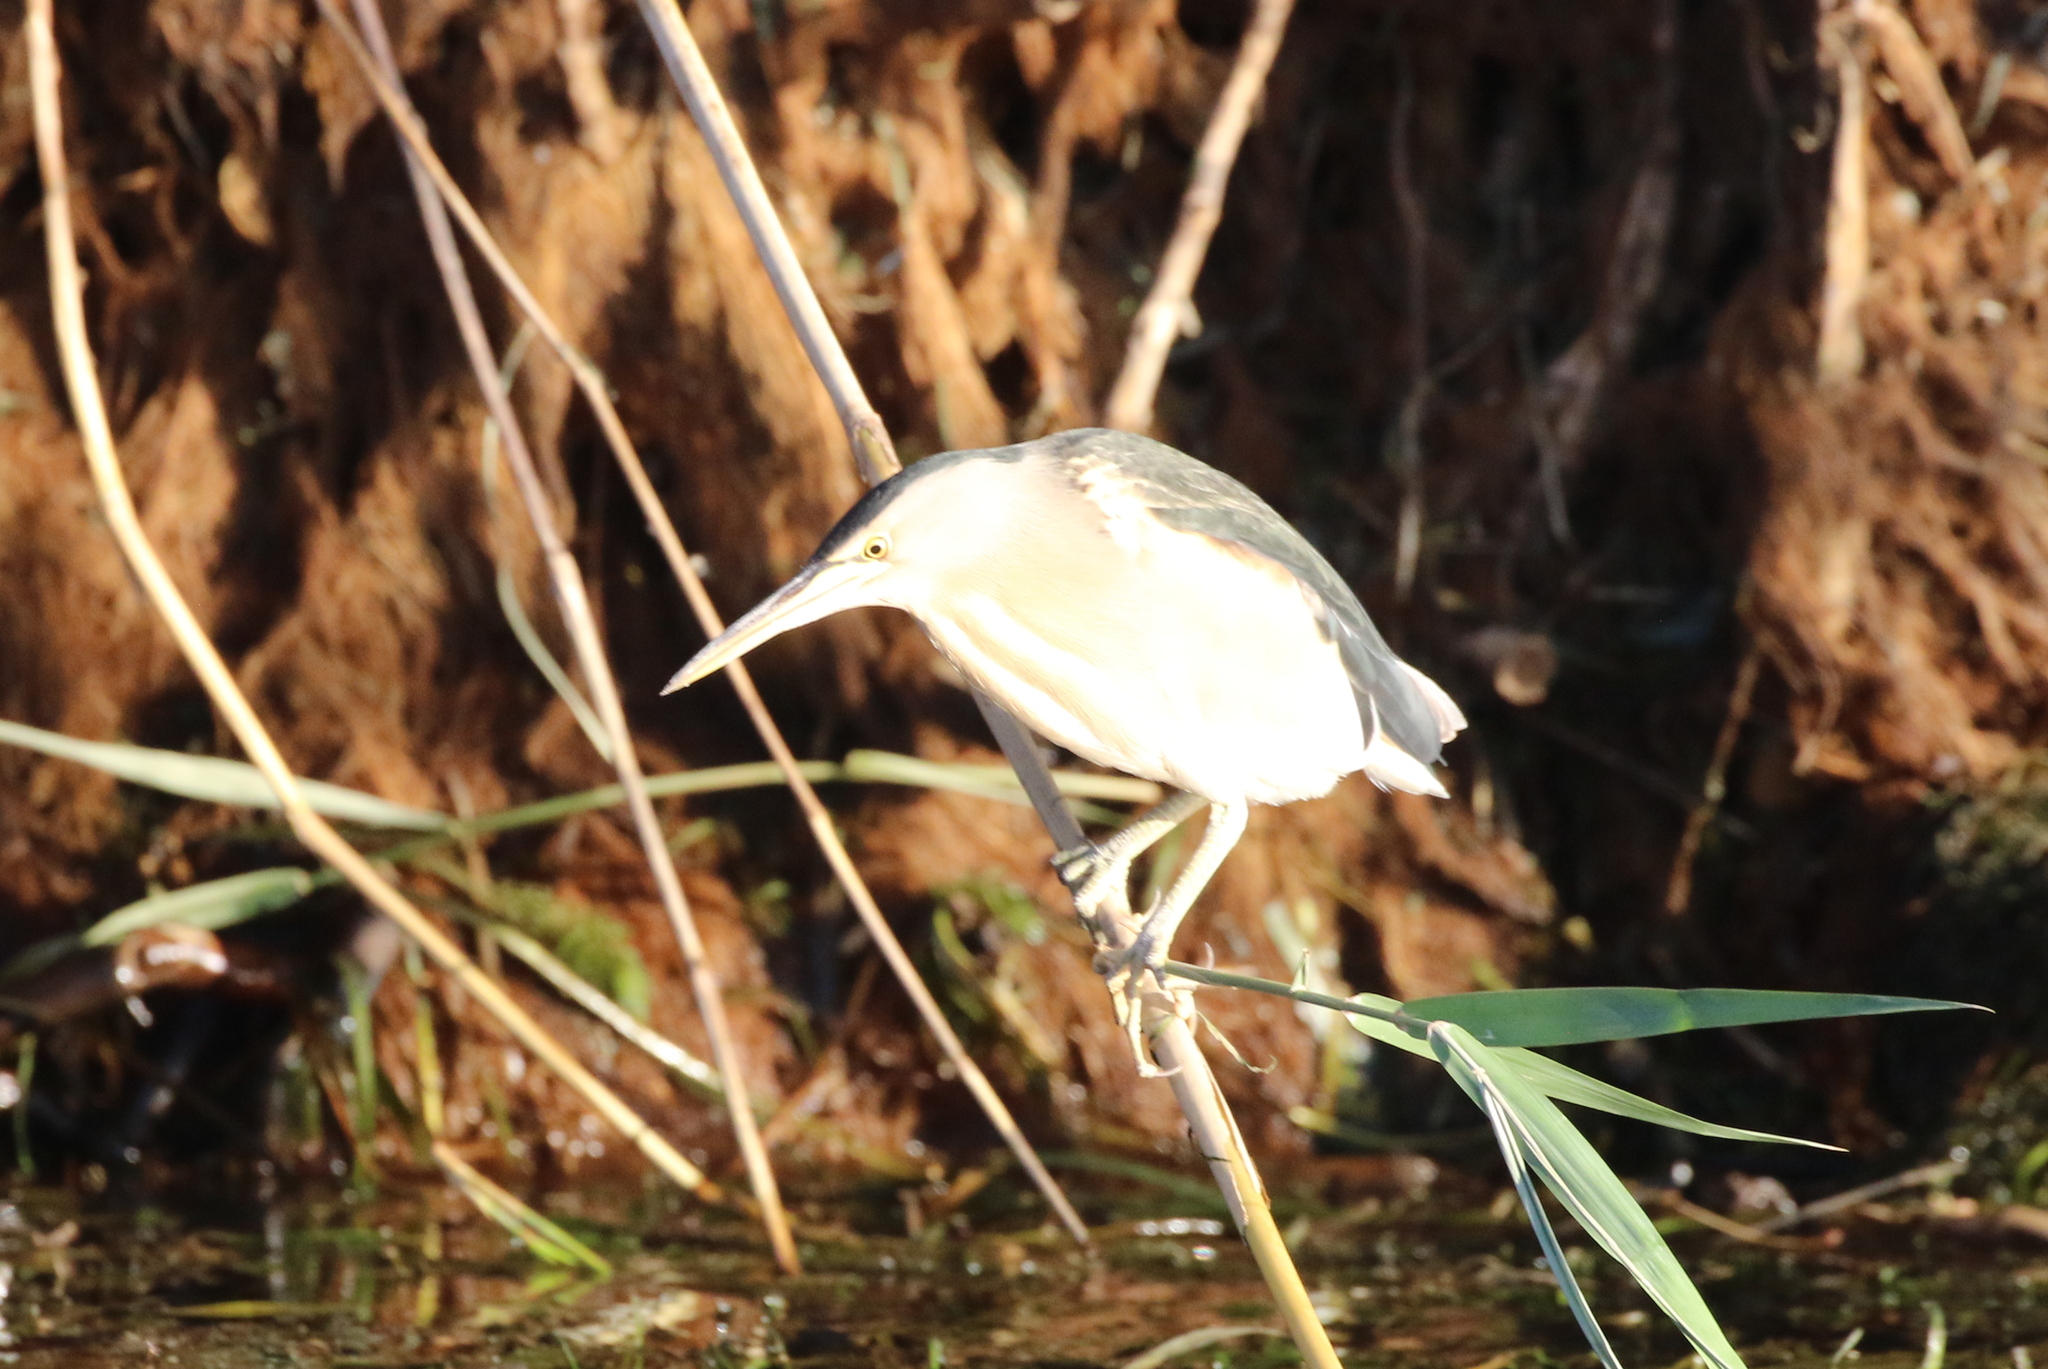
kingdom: Animalia
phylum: Chordata
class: Aves
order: Pelecaniformes
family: Ardeidae
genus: Ixobrychus
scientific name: Ixobrychus minutus
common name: Little bittern
